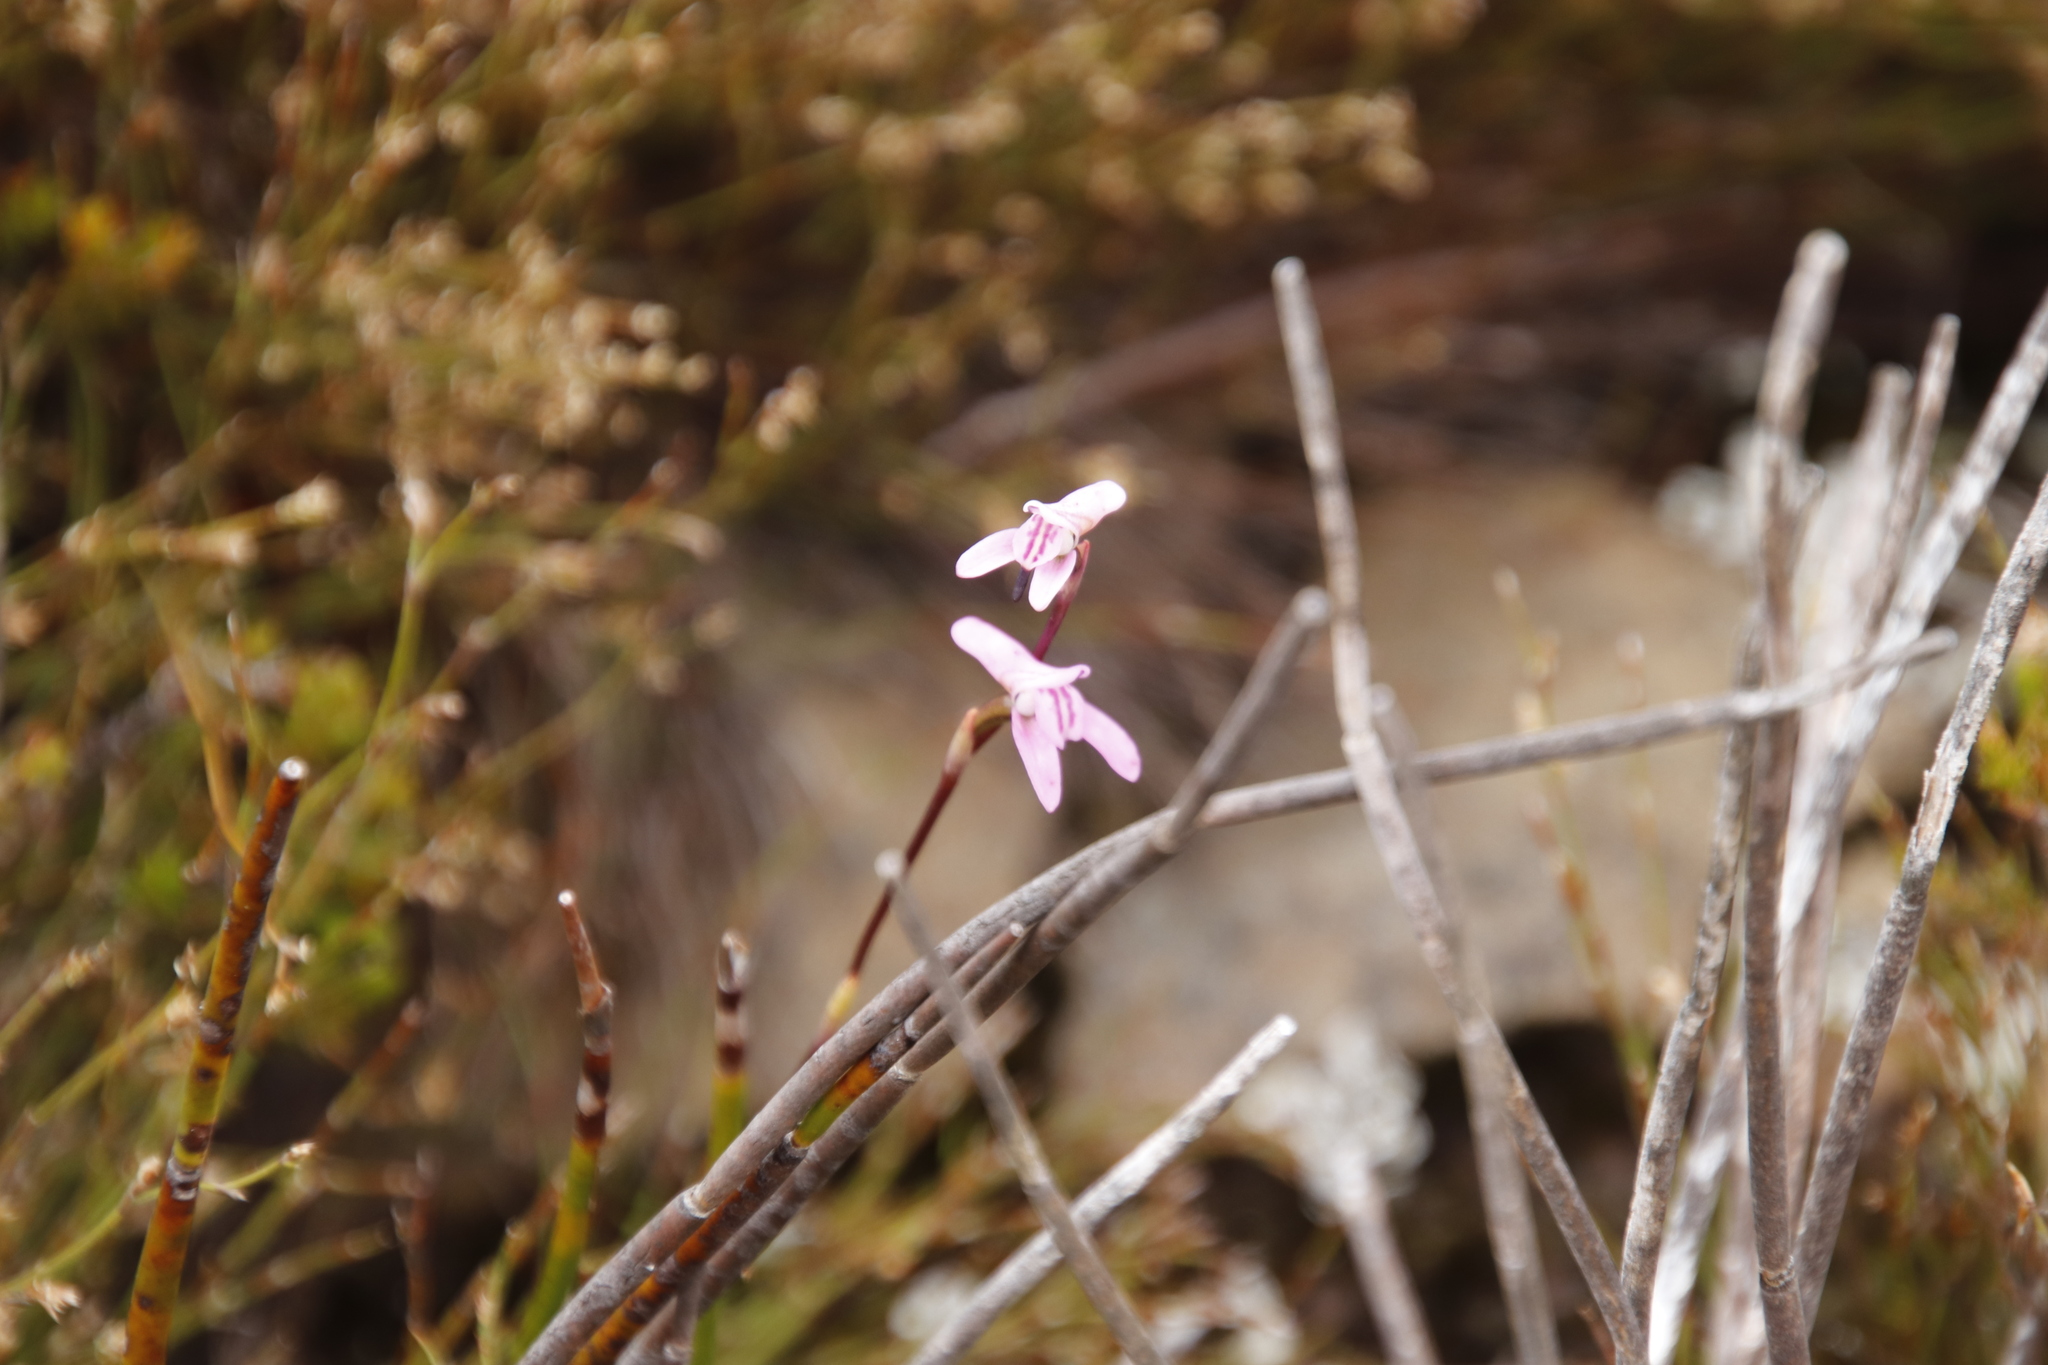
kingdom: Plantae
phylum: Tracheophyta
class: Liliopsida
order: Asparagales
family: Orchidaceae
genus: Disa
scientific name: Disa inflexa
